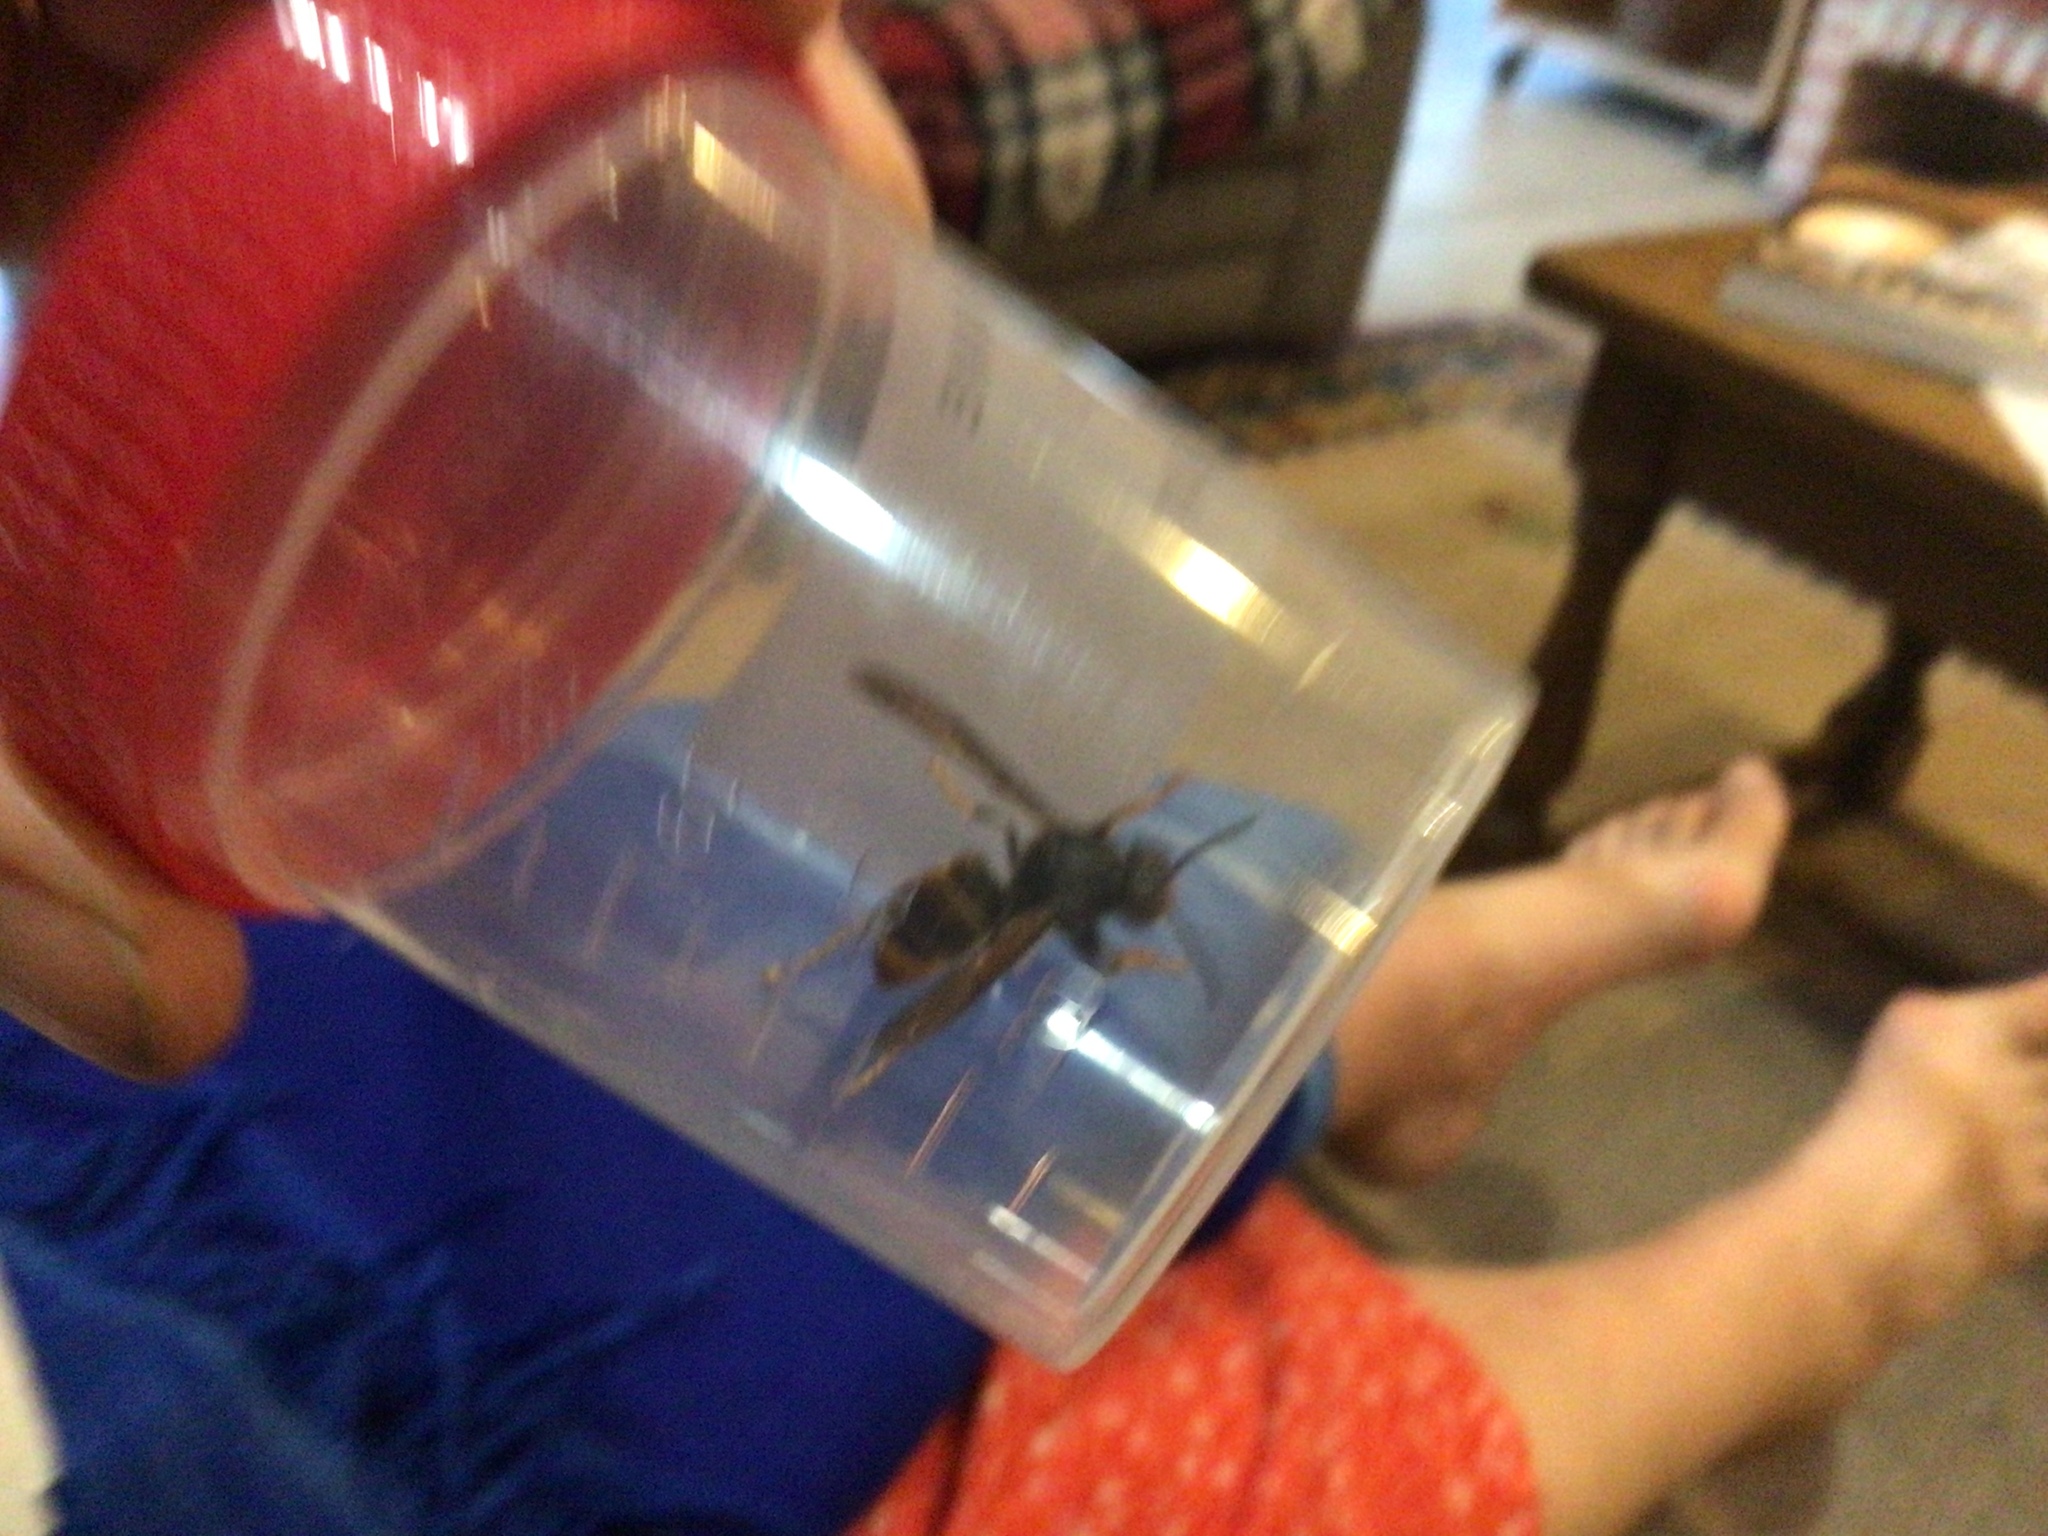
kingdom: Animalia
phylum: Arthropoda
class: Insecta
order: Hymenoptera
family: Vespidae
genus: Vespa
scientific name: Vespa velutina
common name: Asian hornet
